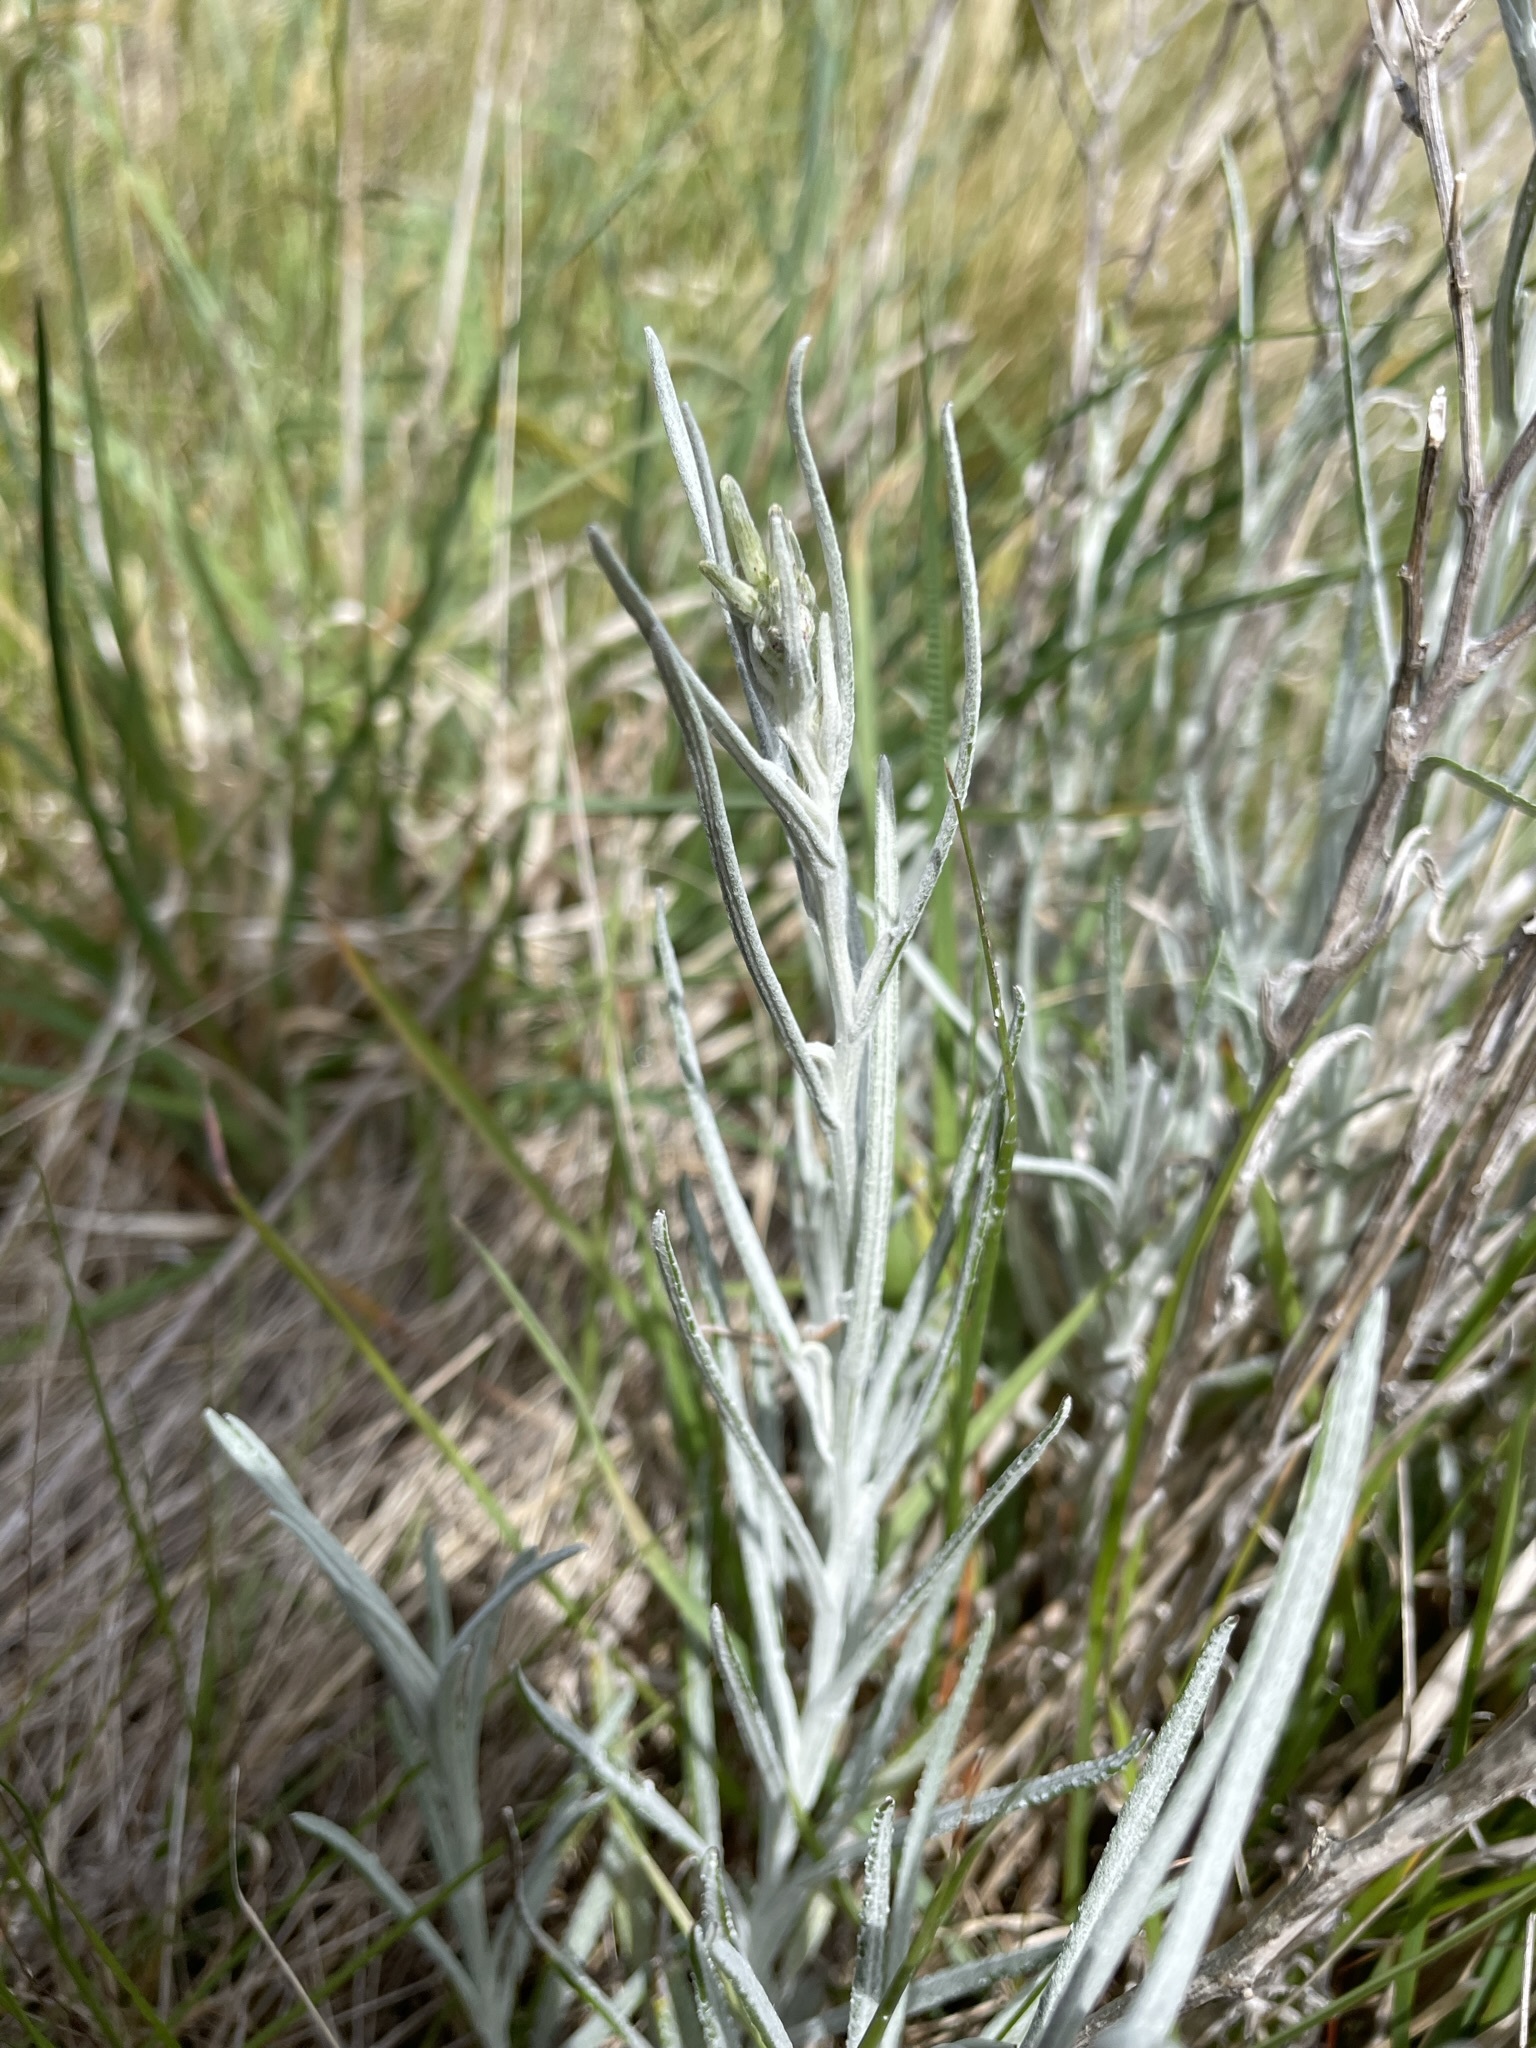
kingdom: Plantae
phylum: Tracheophyta
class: Magnoliopsida
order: Asterales
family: Asteraceae
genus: Senecio
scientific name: Senecio quadridentatus
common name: Cotton fireweed
